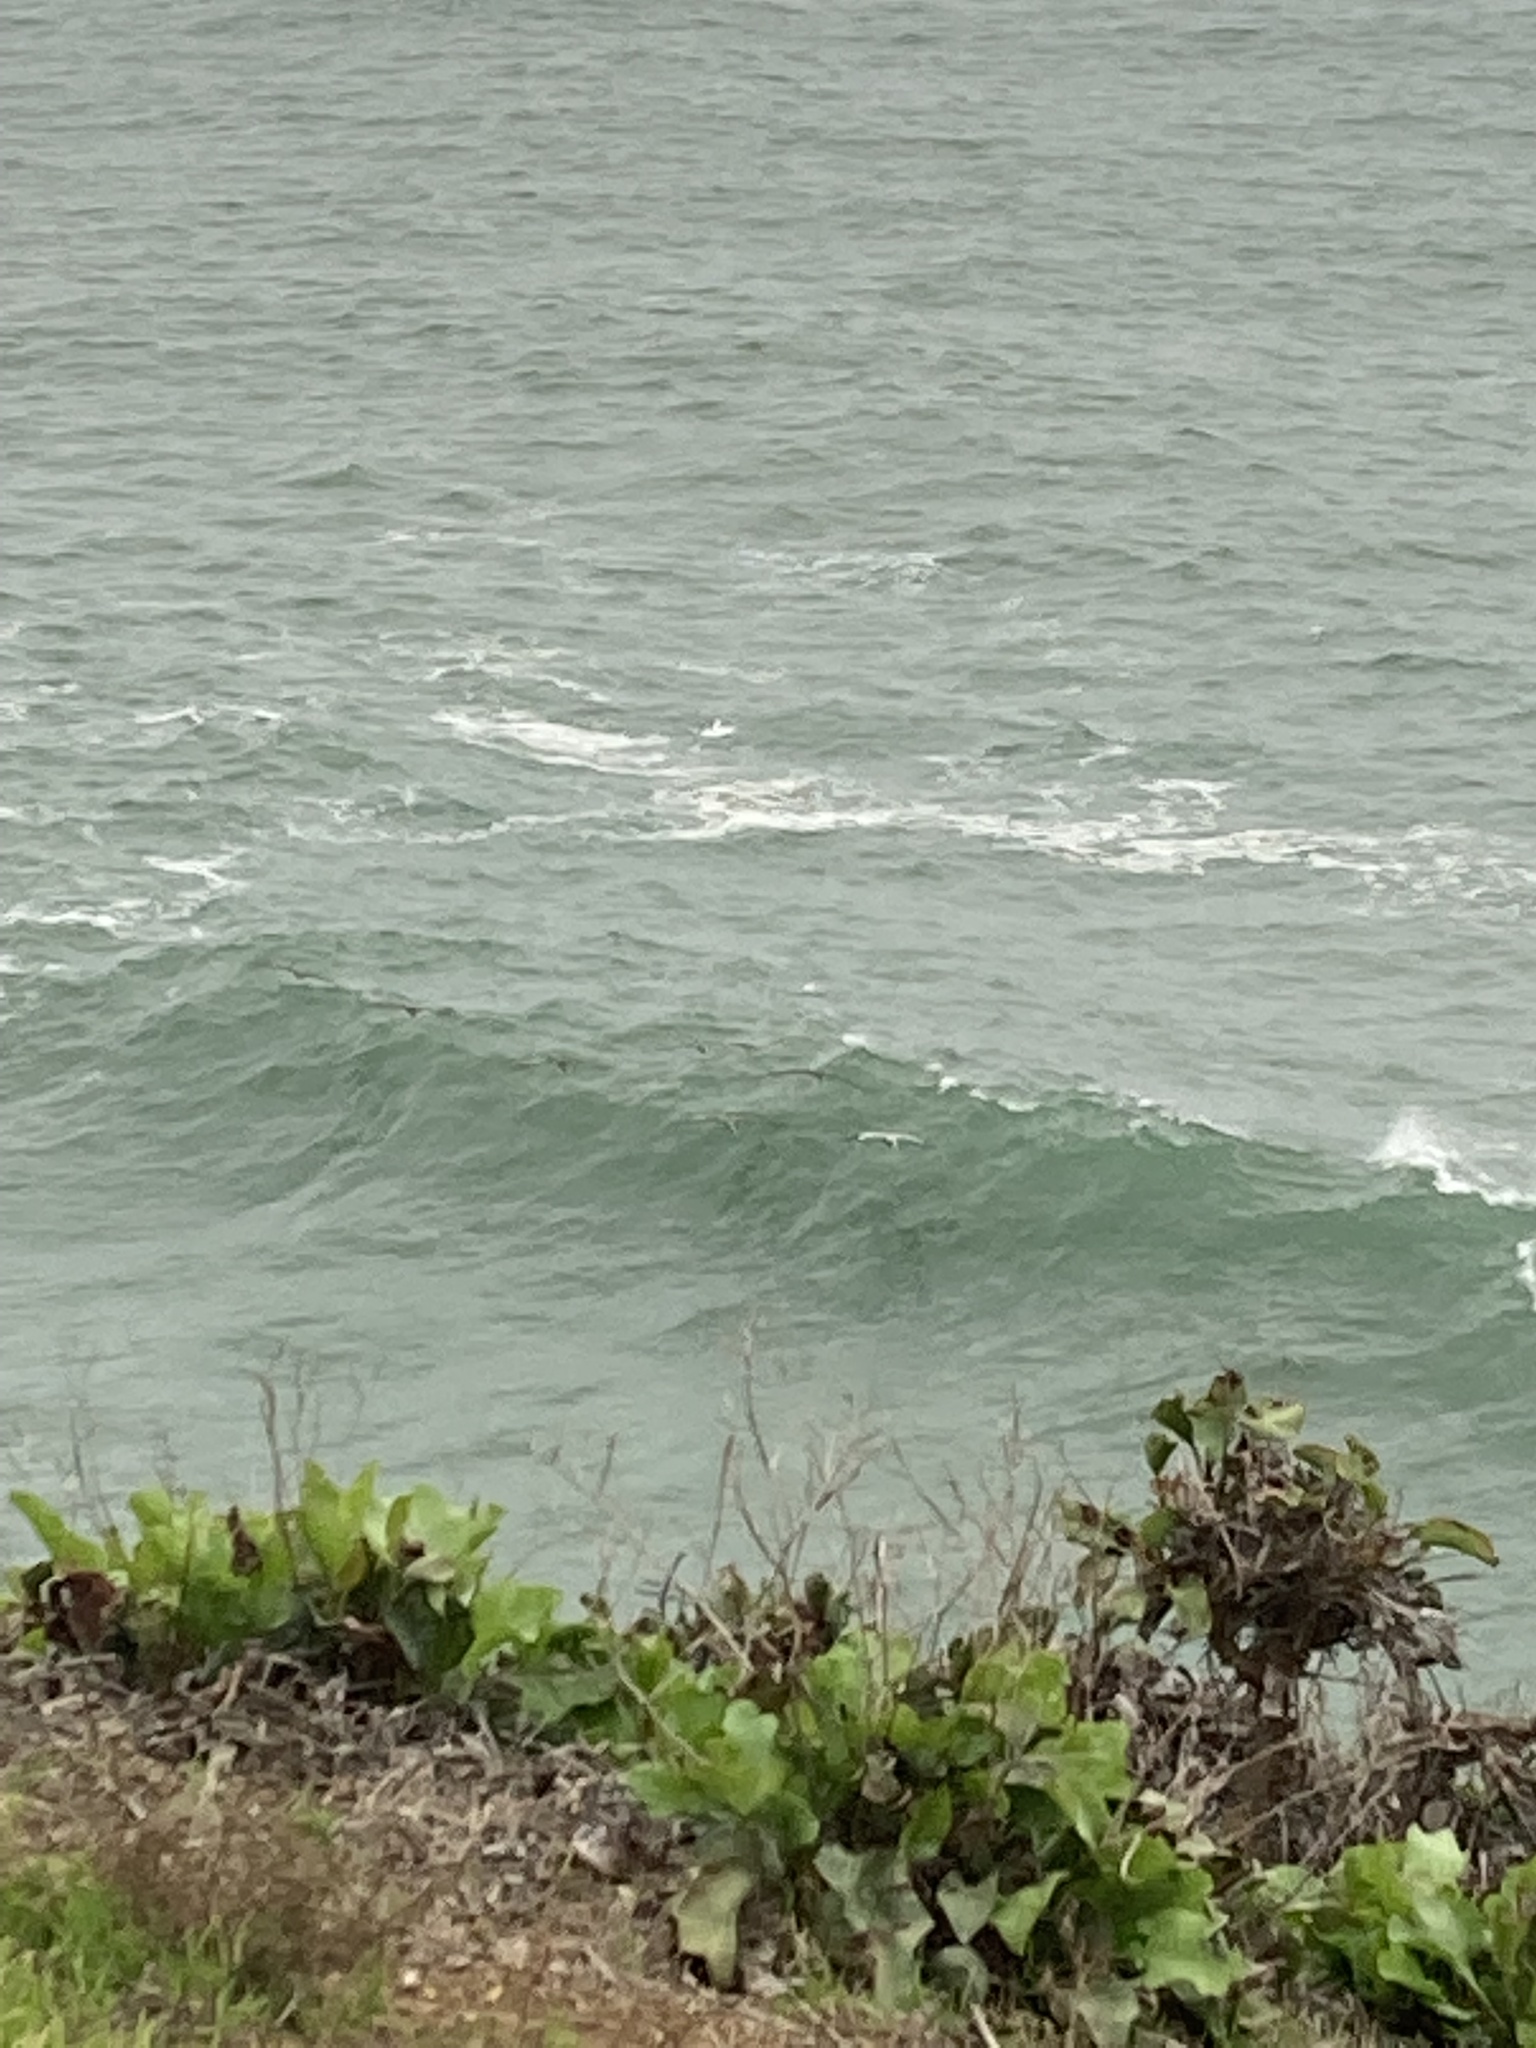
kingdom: Animalia
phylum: Chordata
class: Aves
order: Pelecaniformes
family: Pelecanidae
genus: Pelecanus
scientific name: Pelecanus occidentalis
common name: Brown pelican
